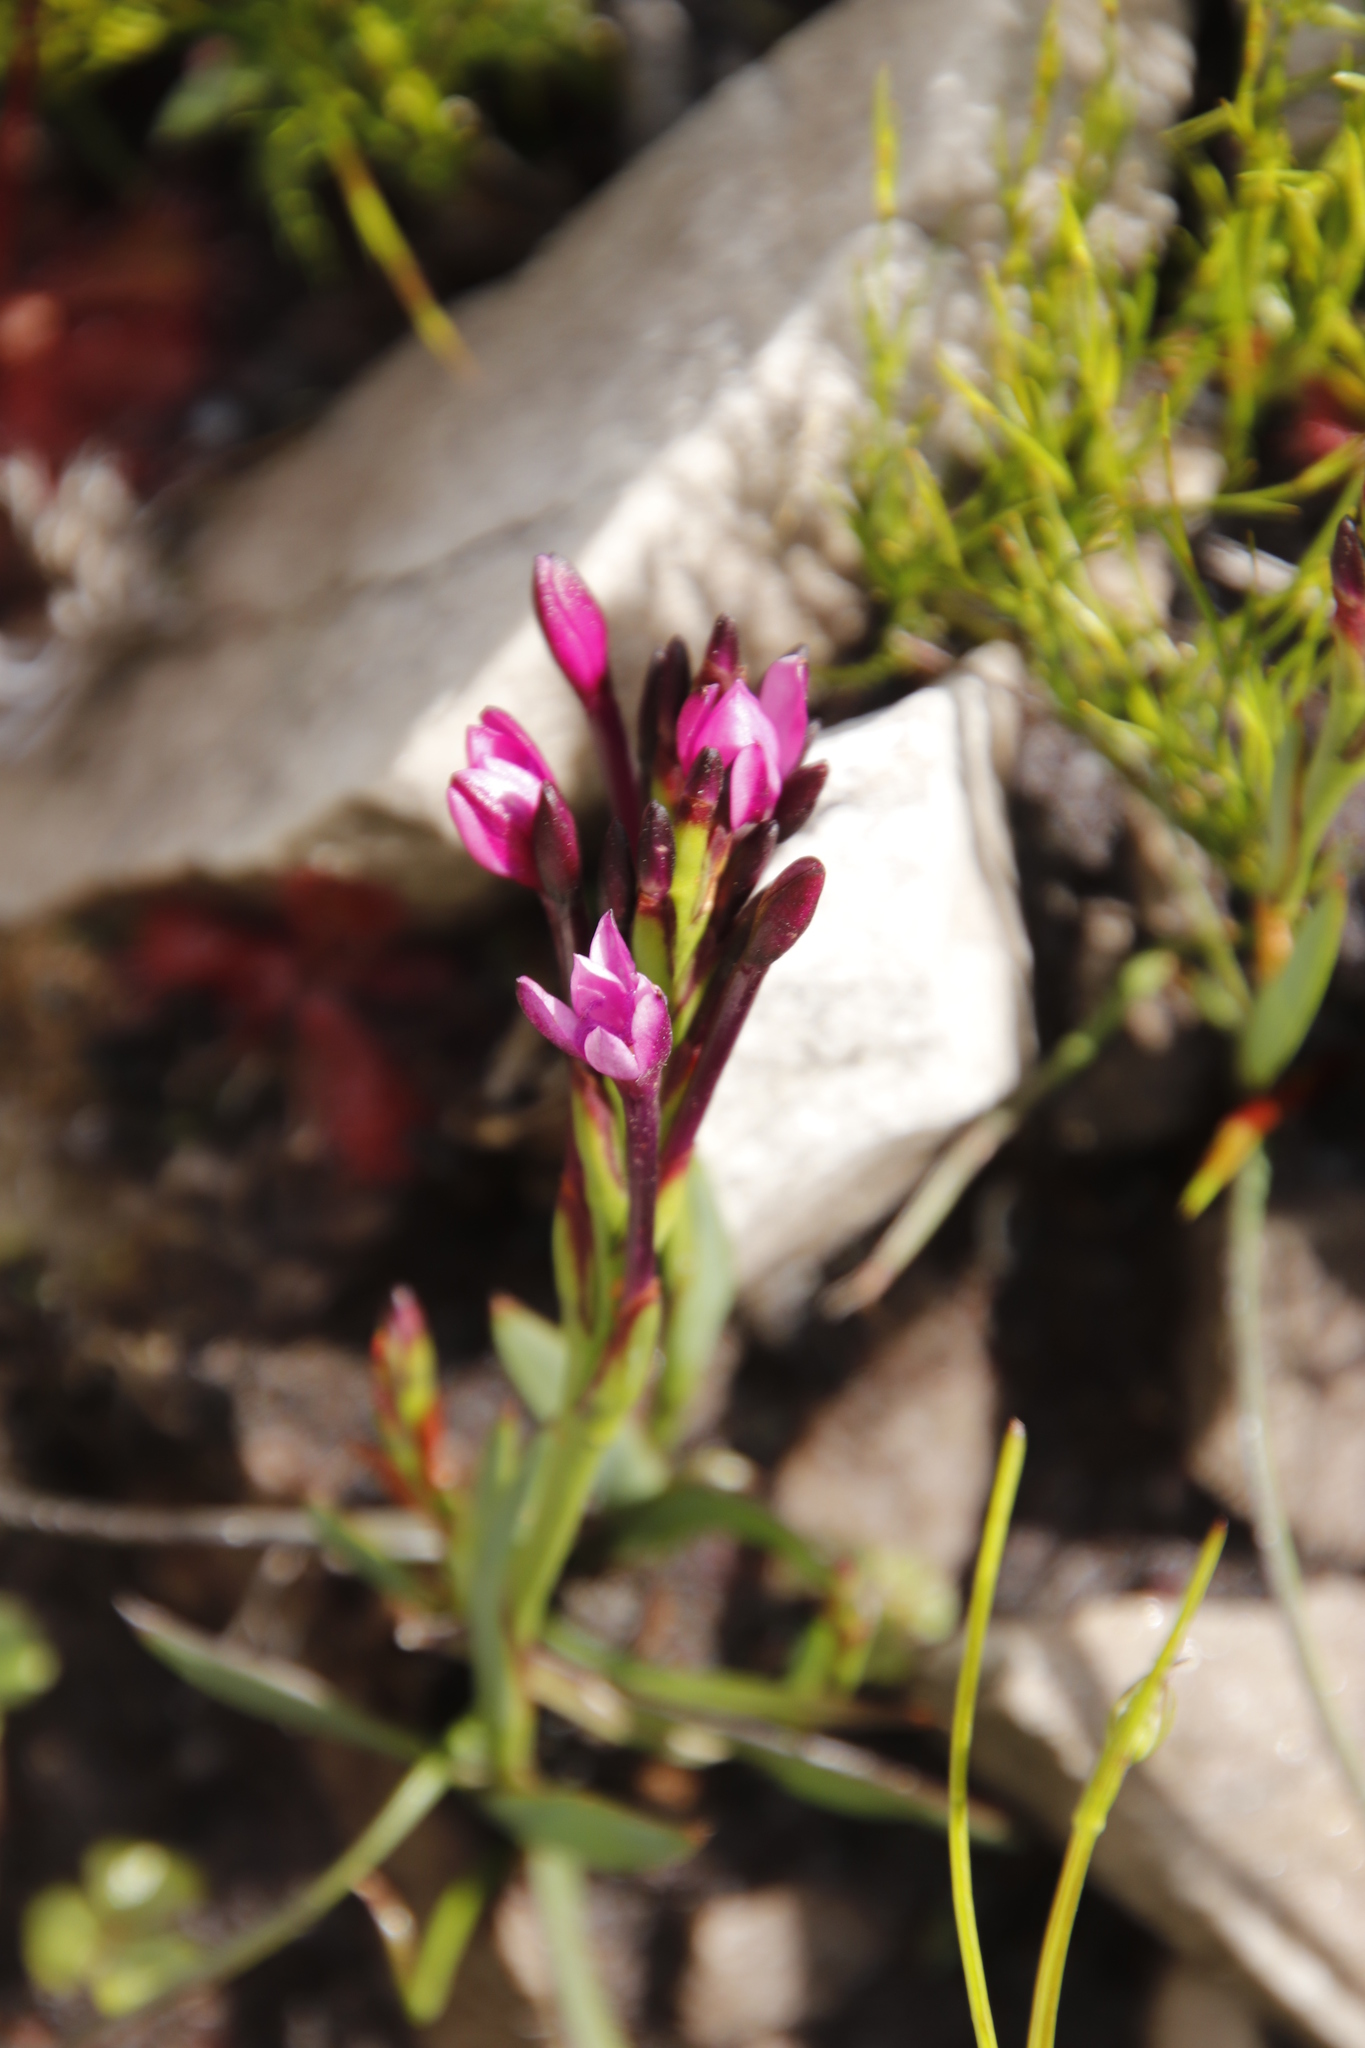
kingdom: Plantae
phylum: Tracheophyta
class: Liliopsida
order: Asparagales
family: Iridaceae
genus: Thereianthus
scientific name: Thereianthus minutus
